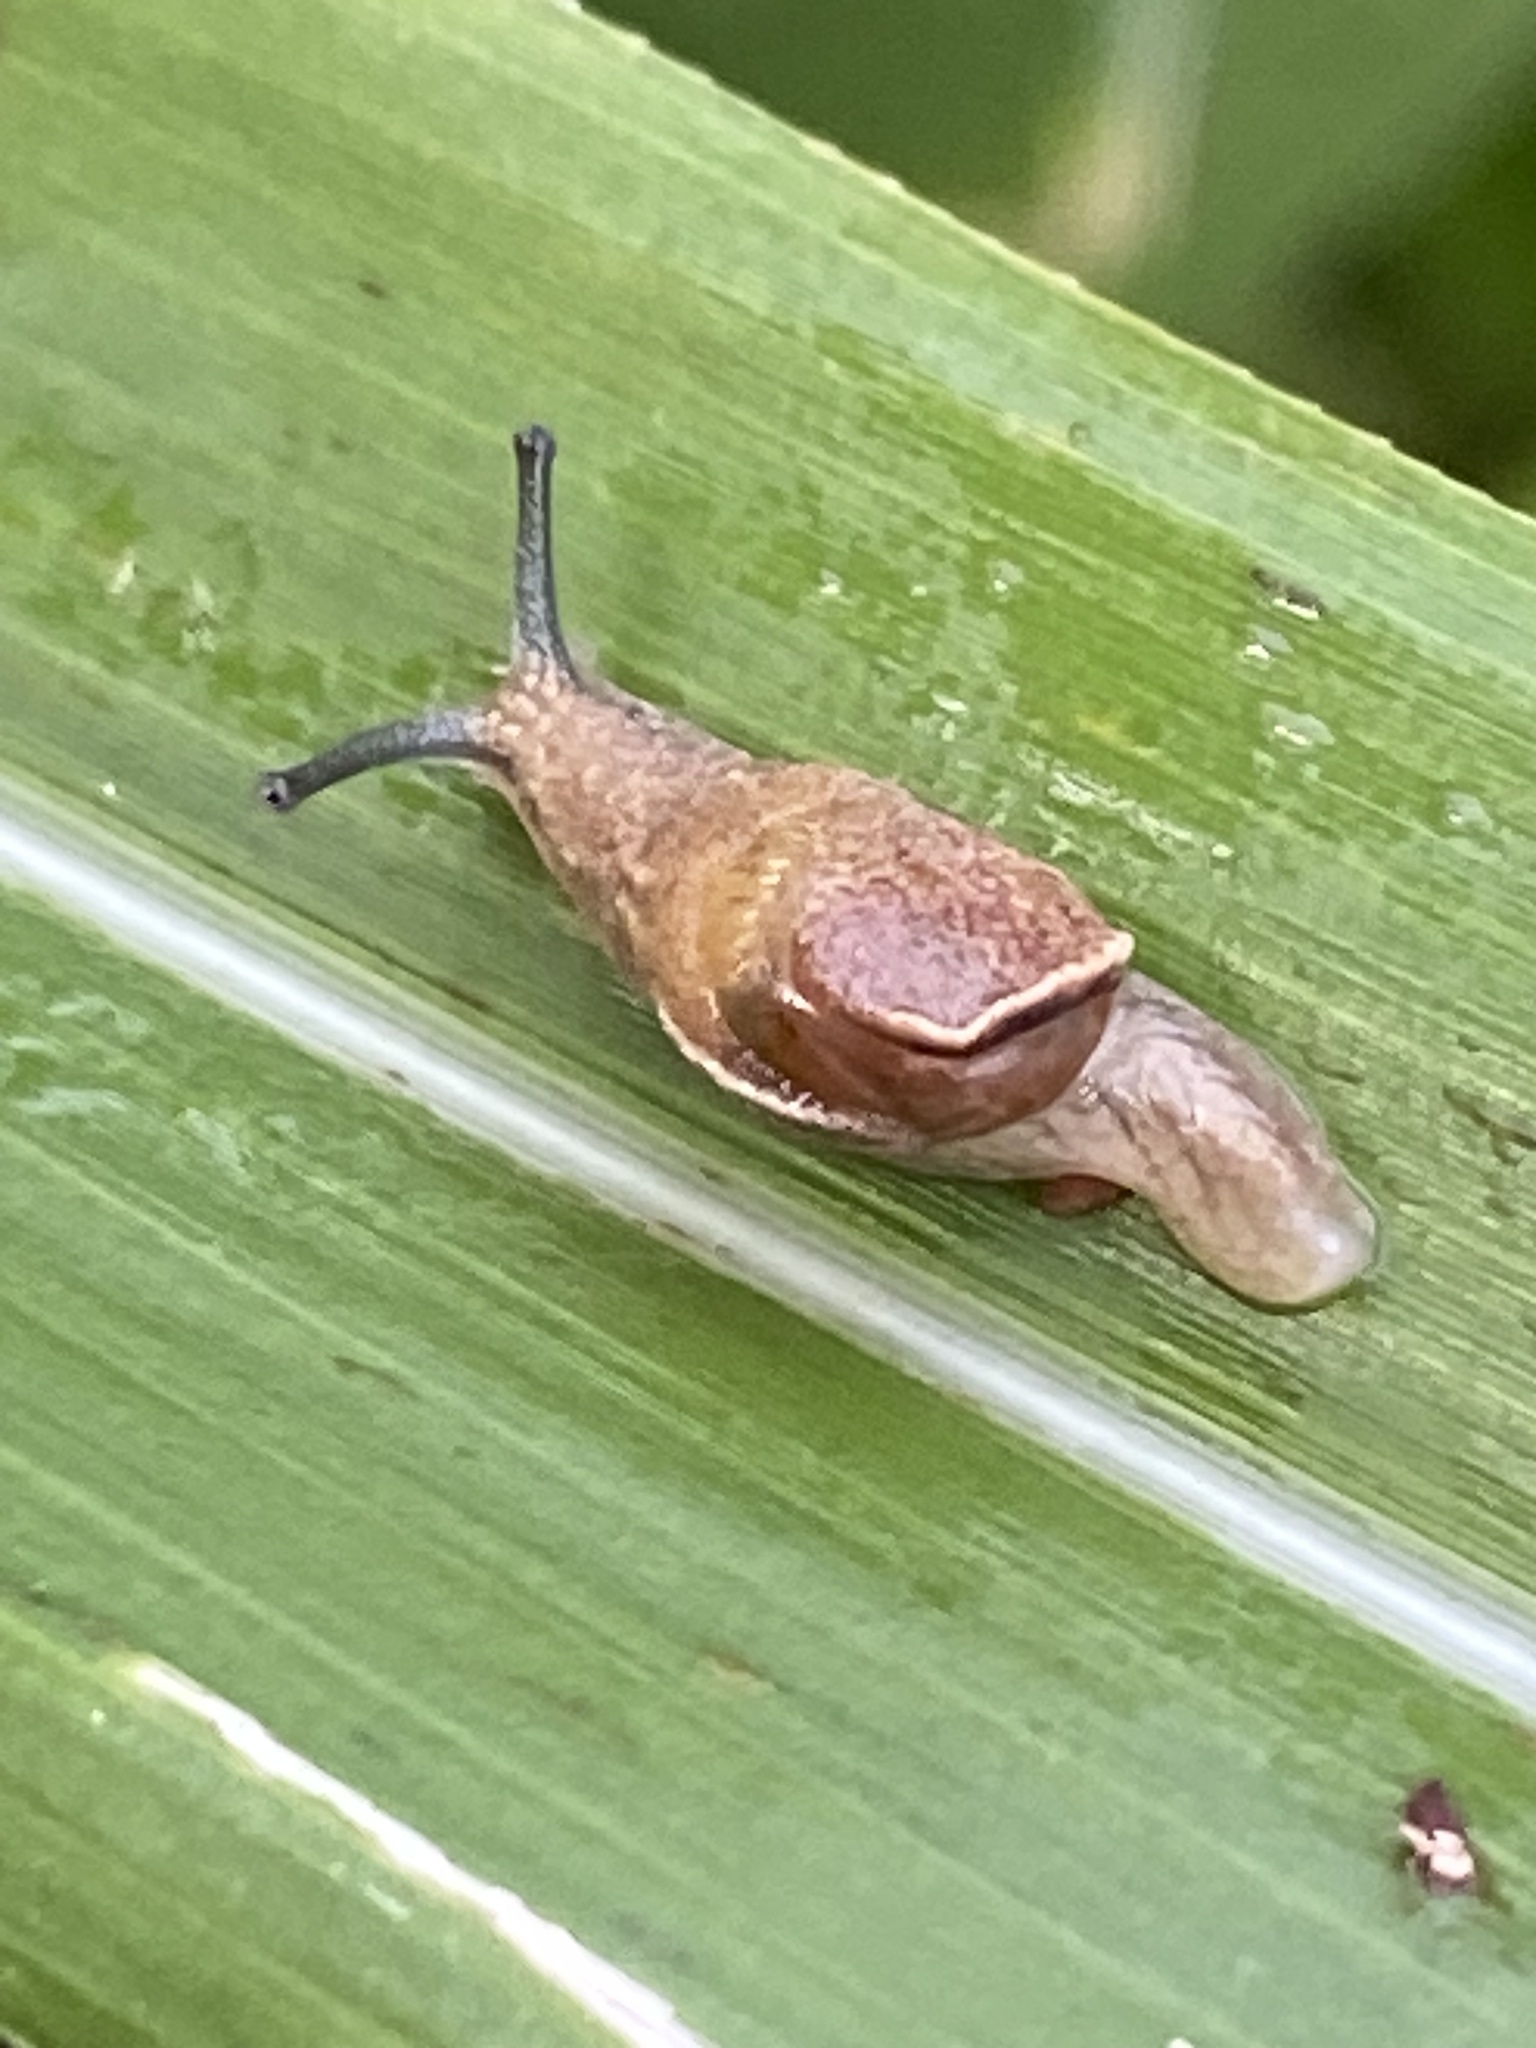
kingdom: Animalia
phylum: Mollusca
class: Gastropoda
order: Stylommatophora
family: Helicarionidae
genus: Ubiquitarion
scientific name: Ubiquitarion iridis
